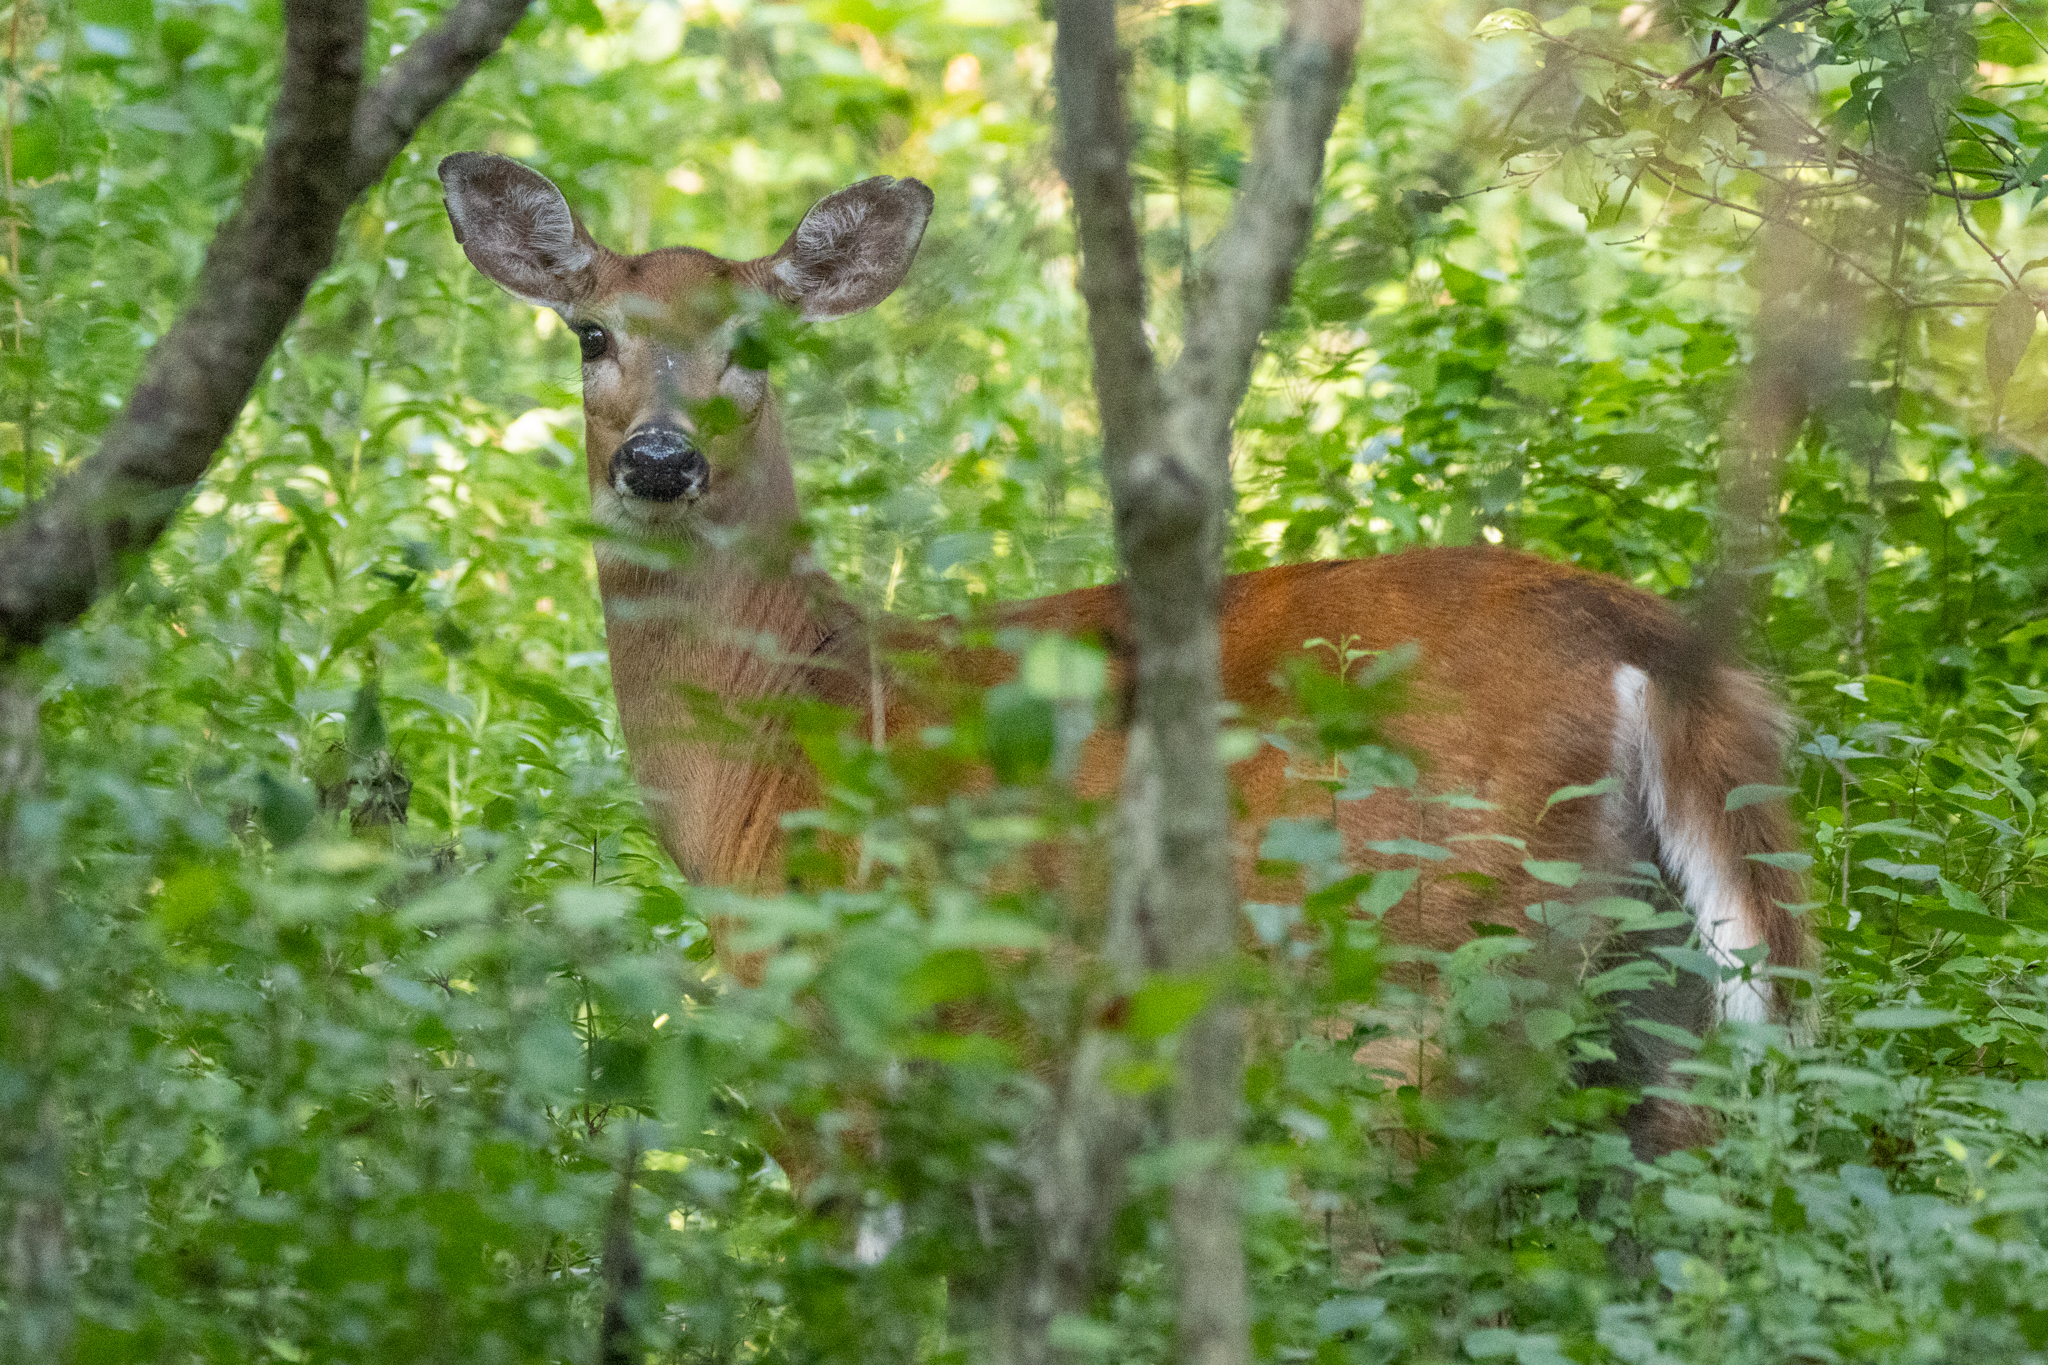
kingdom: Animalia
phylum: Chordata
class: Mammalia
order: Artiodactyla
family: Cervidae
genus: Odocoileus
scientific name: Odocoileus virginianus
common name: White-tailed deer
